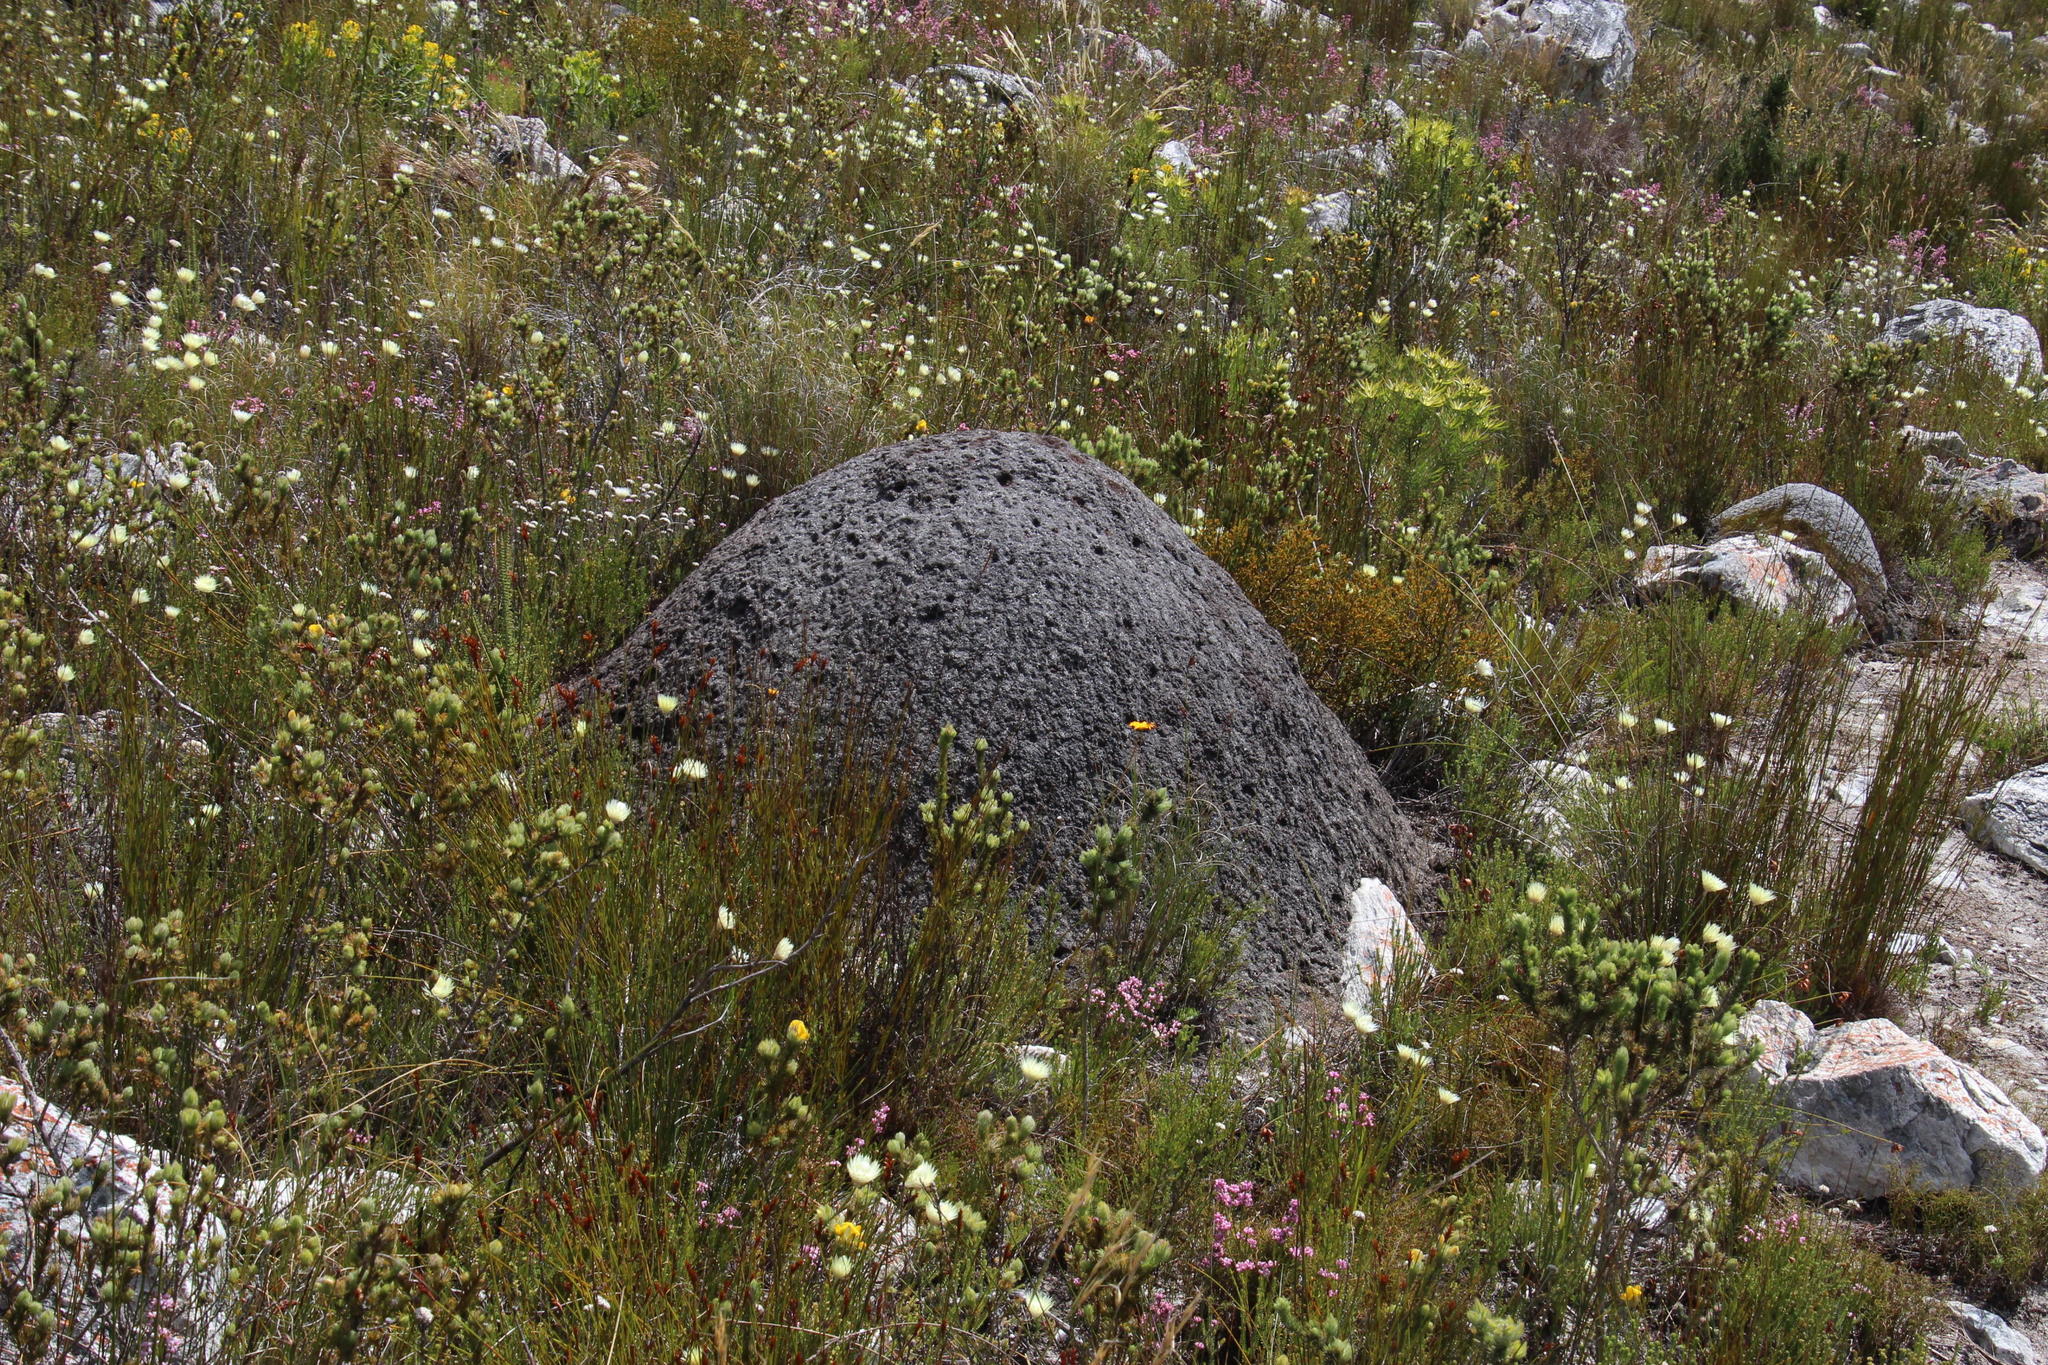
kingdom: Animalia
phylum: Arthropoda
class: Insecta
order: Blattodea
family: Termitidae
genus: Amitermes
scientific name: Amitermes hastatus
